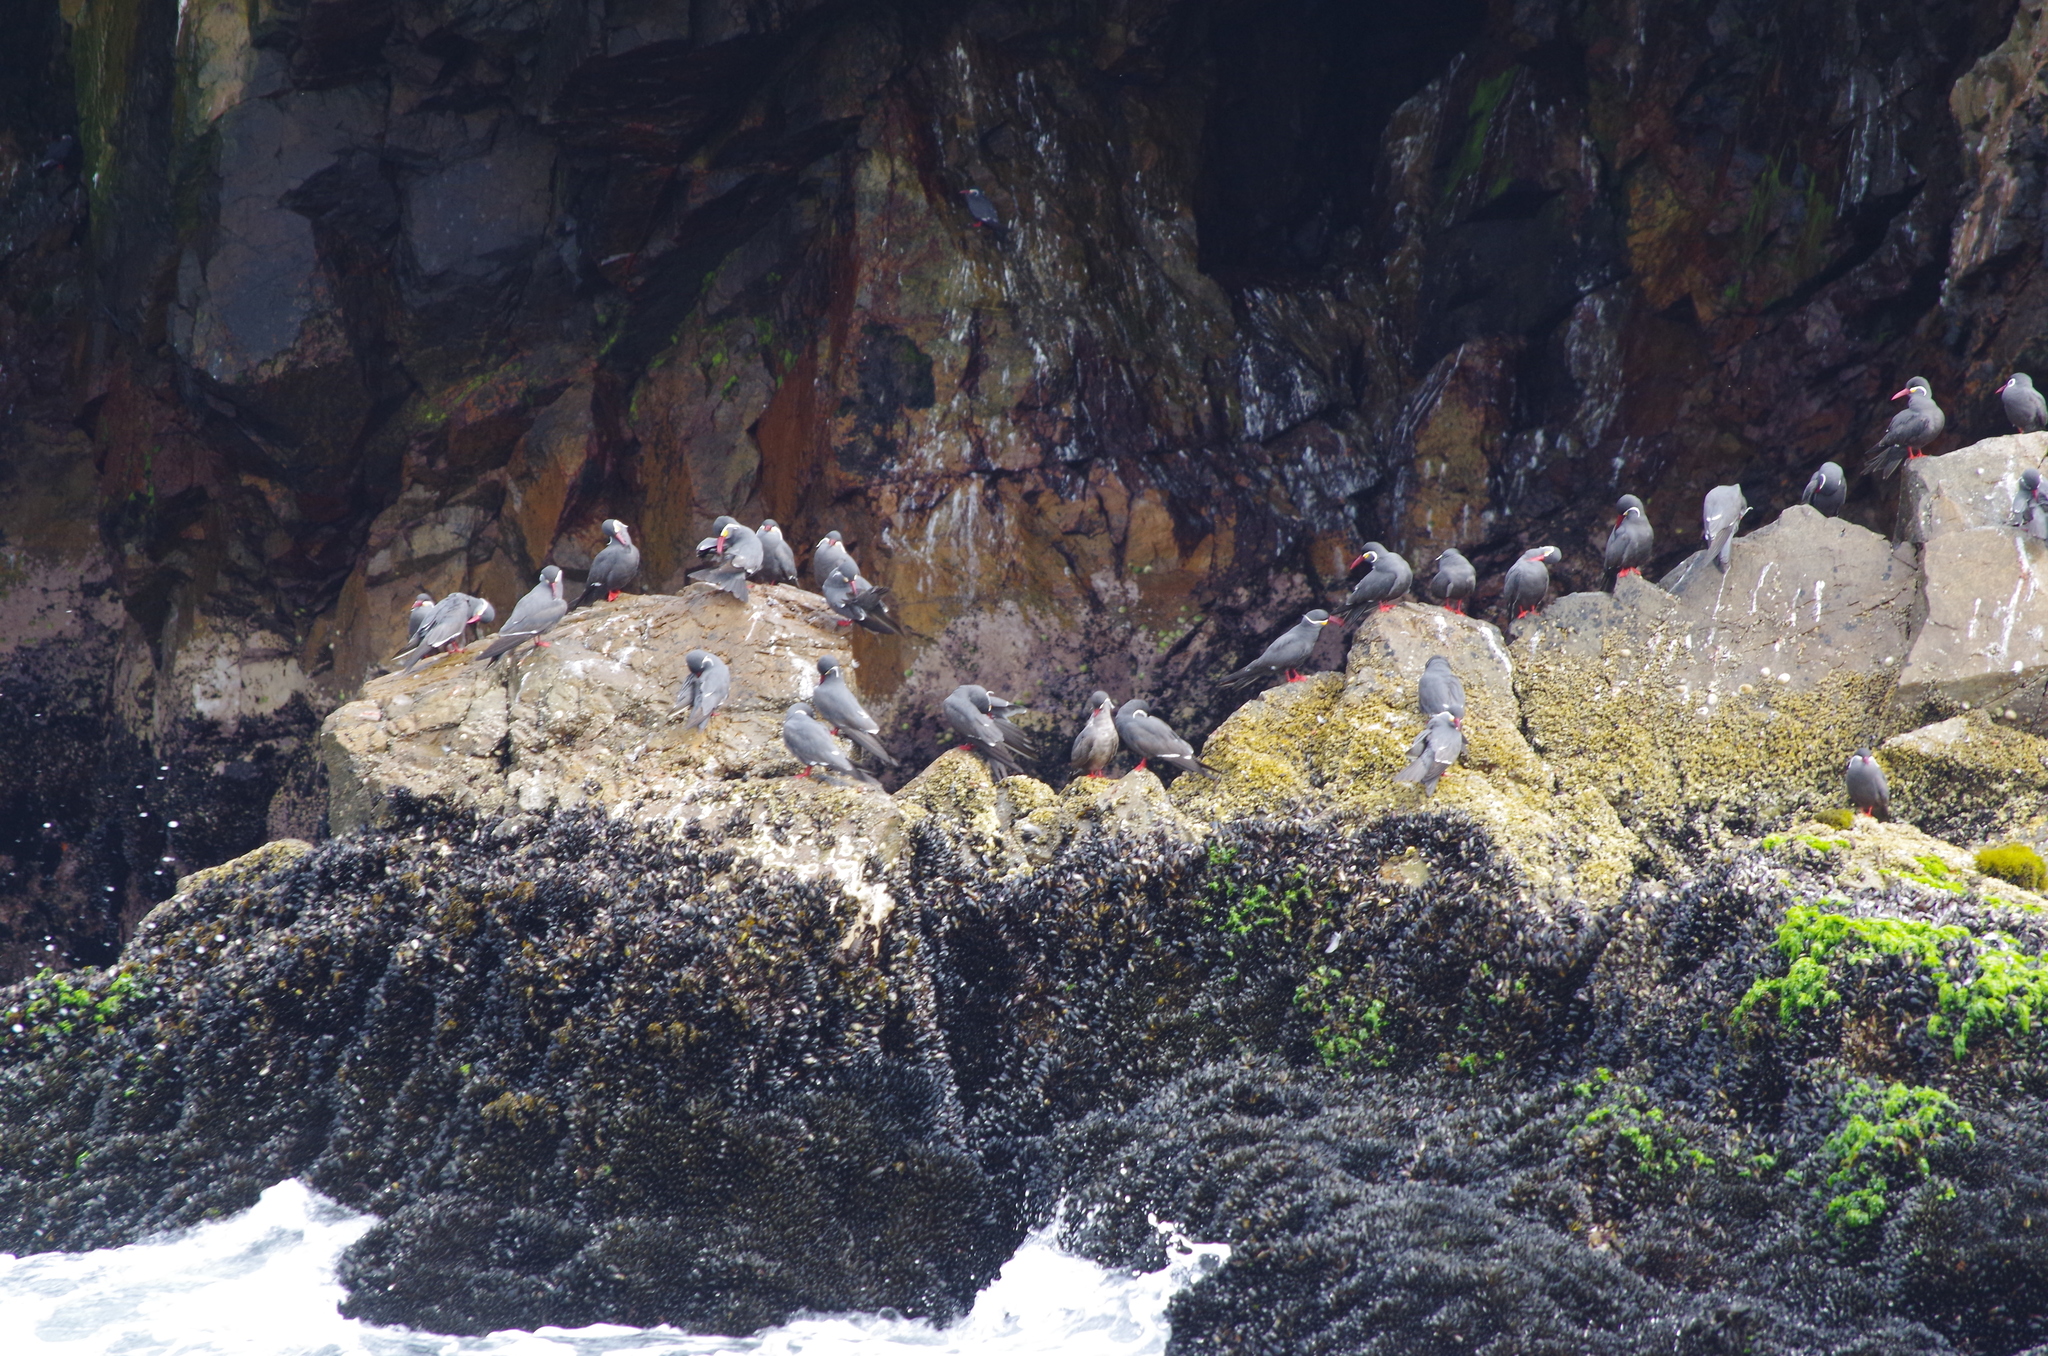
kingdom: Animalia
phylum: Chordata
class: Aves
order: Charadriiformes
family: Laridae
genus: Larosterna
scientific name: Larosterna inca
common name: Inca tern
